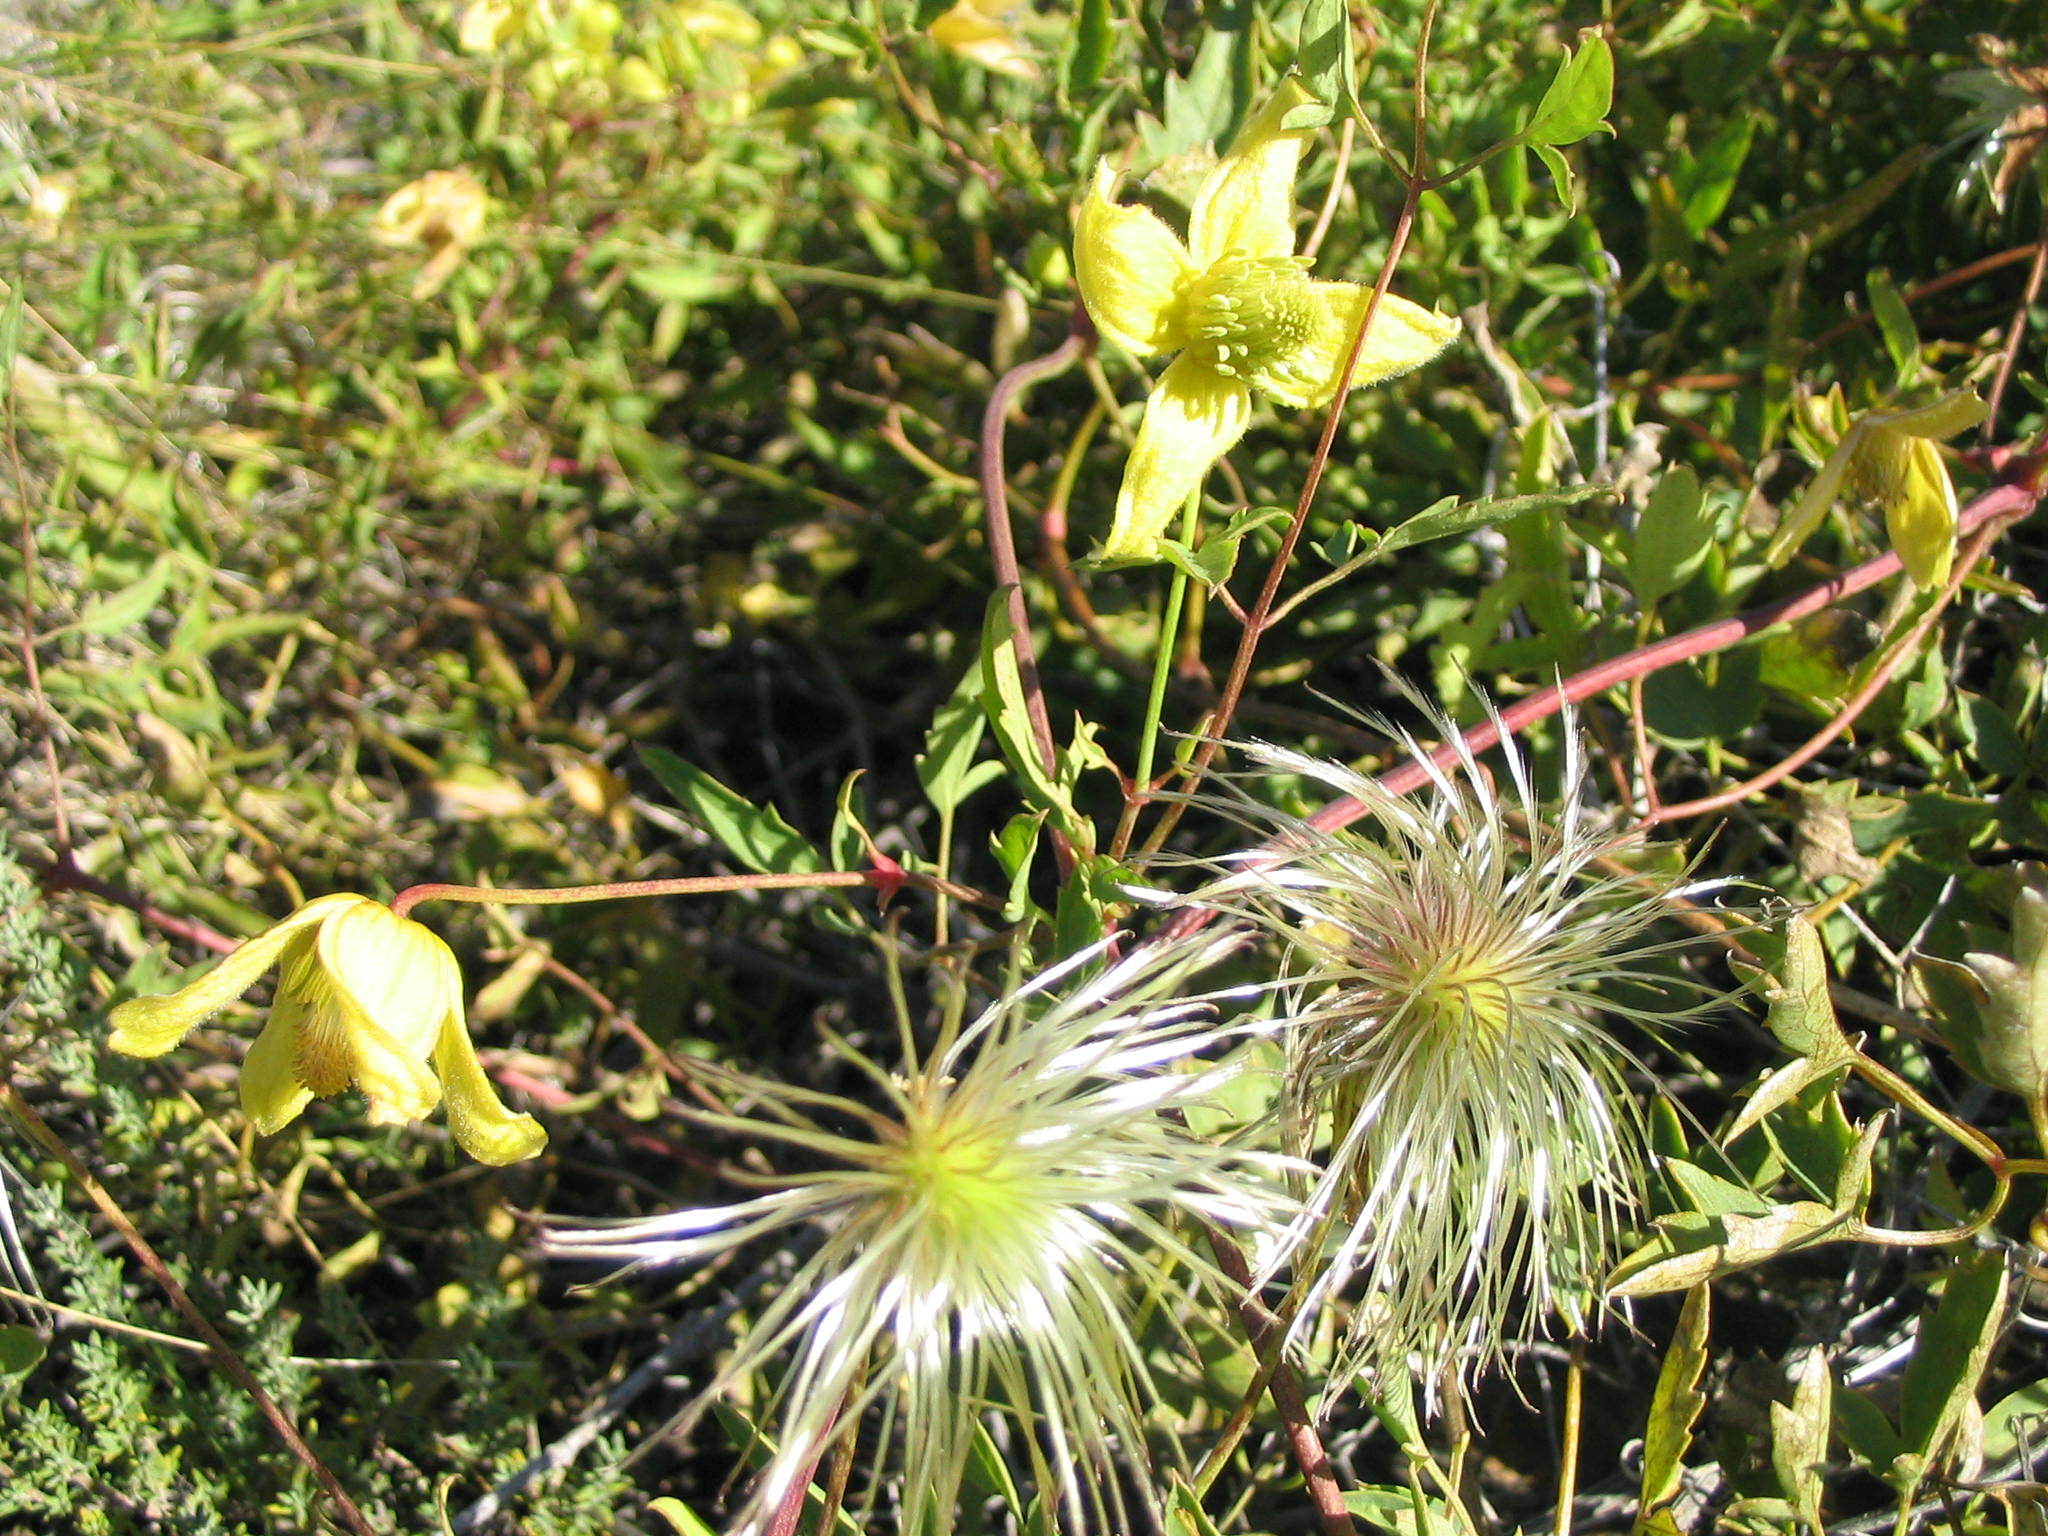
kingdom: Plantae
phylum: Tracheophyta
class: Magnoliopsida
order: Ranunculales
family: Ranunculaceae
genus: Clematis
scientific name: Clematis tangutica
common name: Orange-peel clematis
